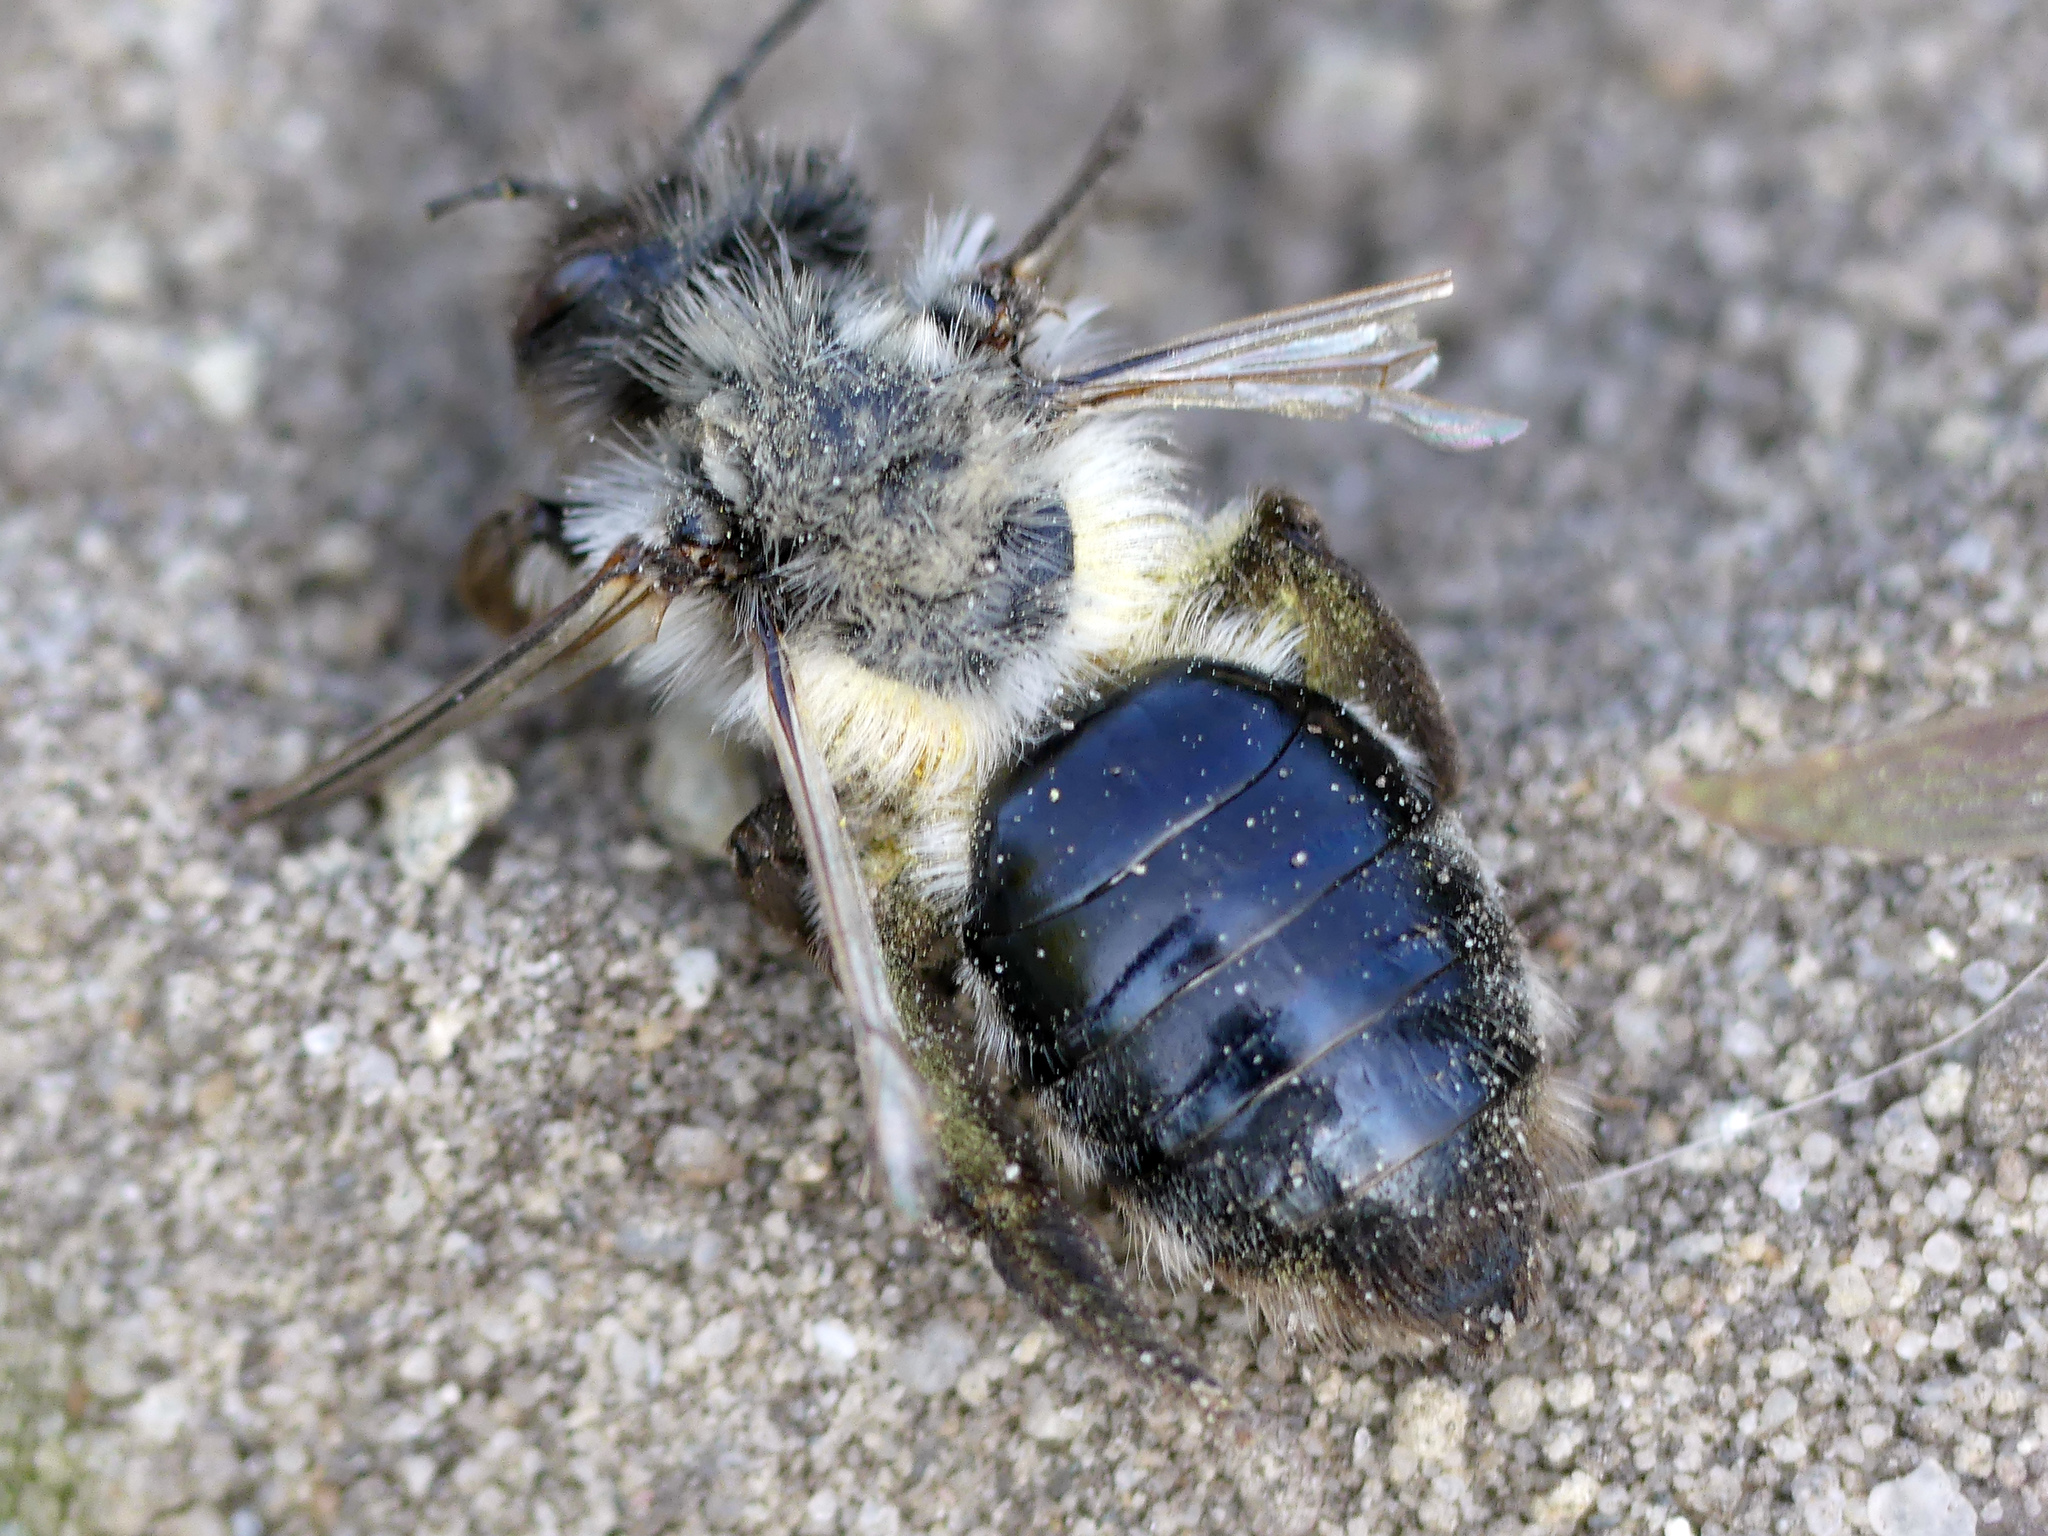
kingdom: Animalia
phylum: Arthropoda
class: Insecta
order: Hymenoptera
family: Andrenidae
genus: Andrena
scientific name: Andrena vaga
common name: Grey-backed mining bee
